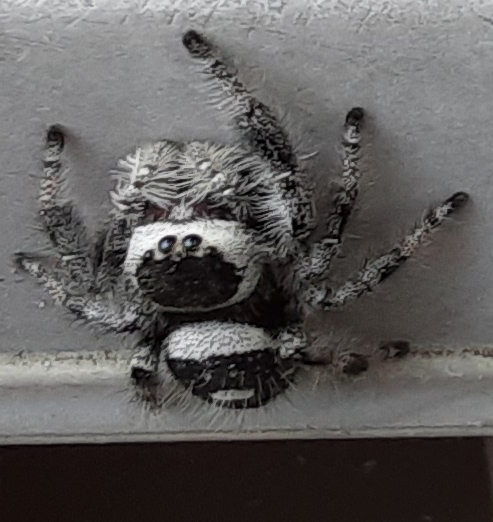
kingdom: Animalia
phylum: Arthropoda
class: Arachnida
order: Araneae
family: Salticidae
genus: Phidippus
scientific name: Phidippus regius
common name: Regal jumper
